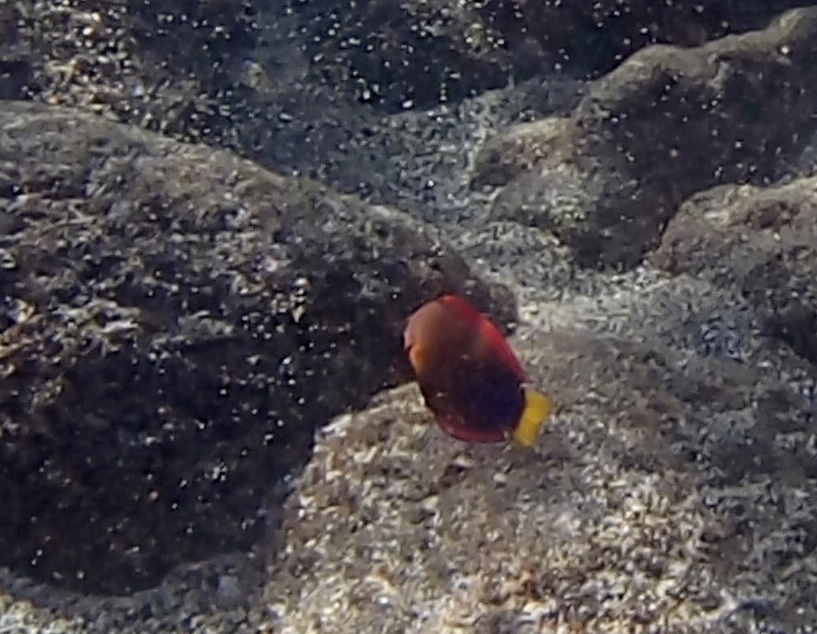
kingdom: Animalia
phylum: Chordata
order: Perciformes
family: Labridae
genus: Coris
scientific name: Coris gaimard
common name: Yellowtail coris
